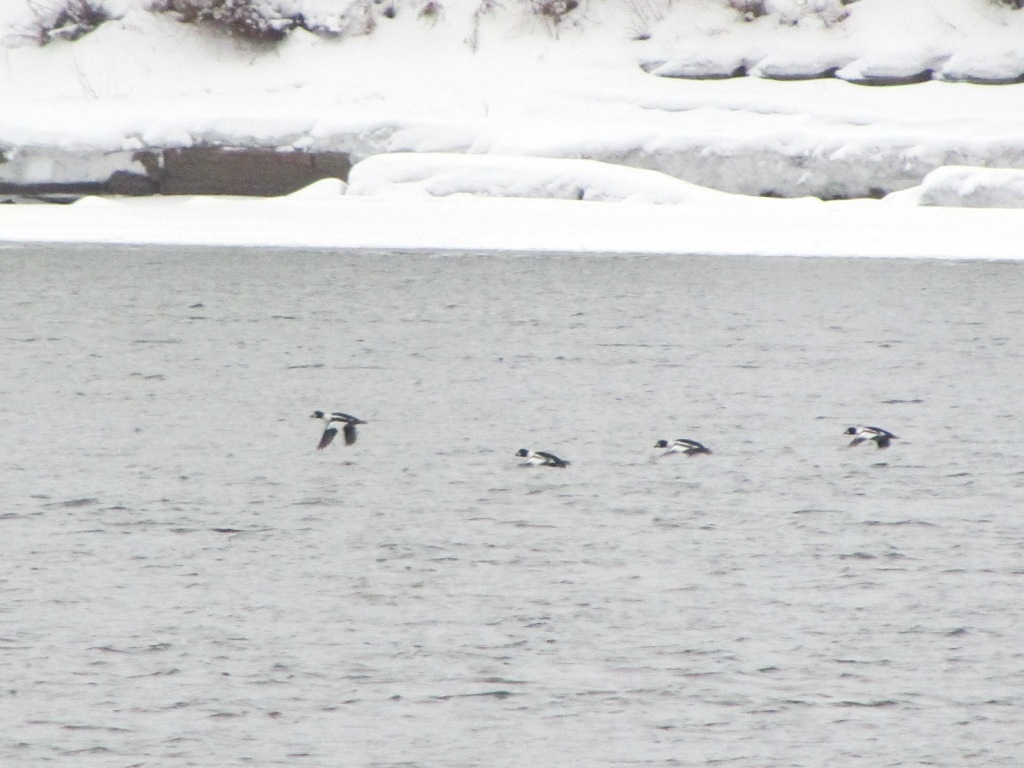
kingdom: Animalia
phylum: Chordata
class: Aves
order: Anseriformes
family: Anatidae
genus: Bucephala
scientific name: Bucephala clangula
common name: Common goldeneye
